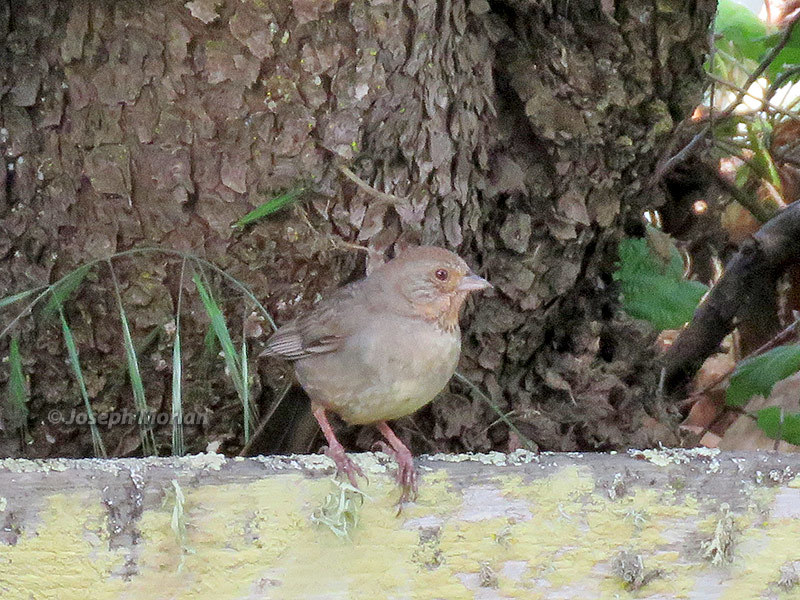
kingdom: Animalia
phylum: Chordata
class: Aves
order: Passeriformes
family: Passerellidae
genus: Melozone
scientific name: Melozone crissalis
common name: California towhee
